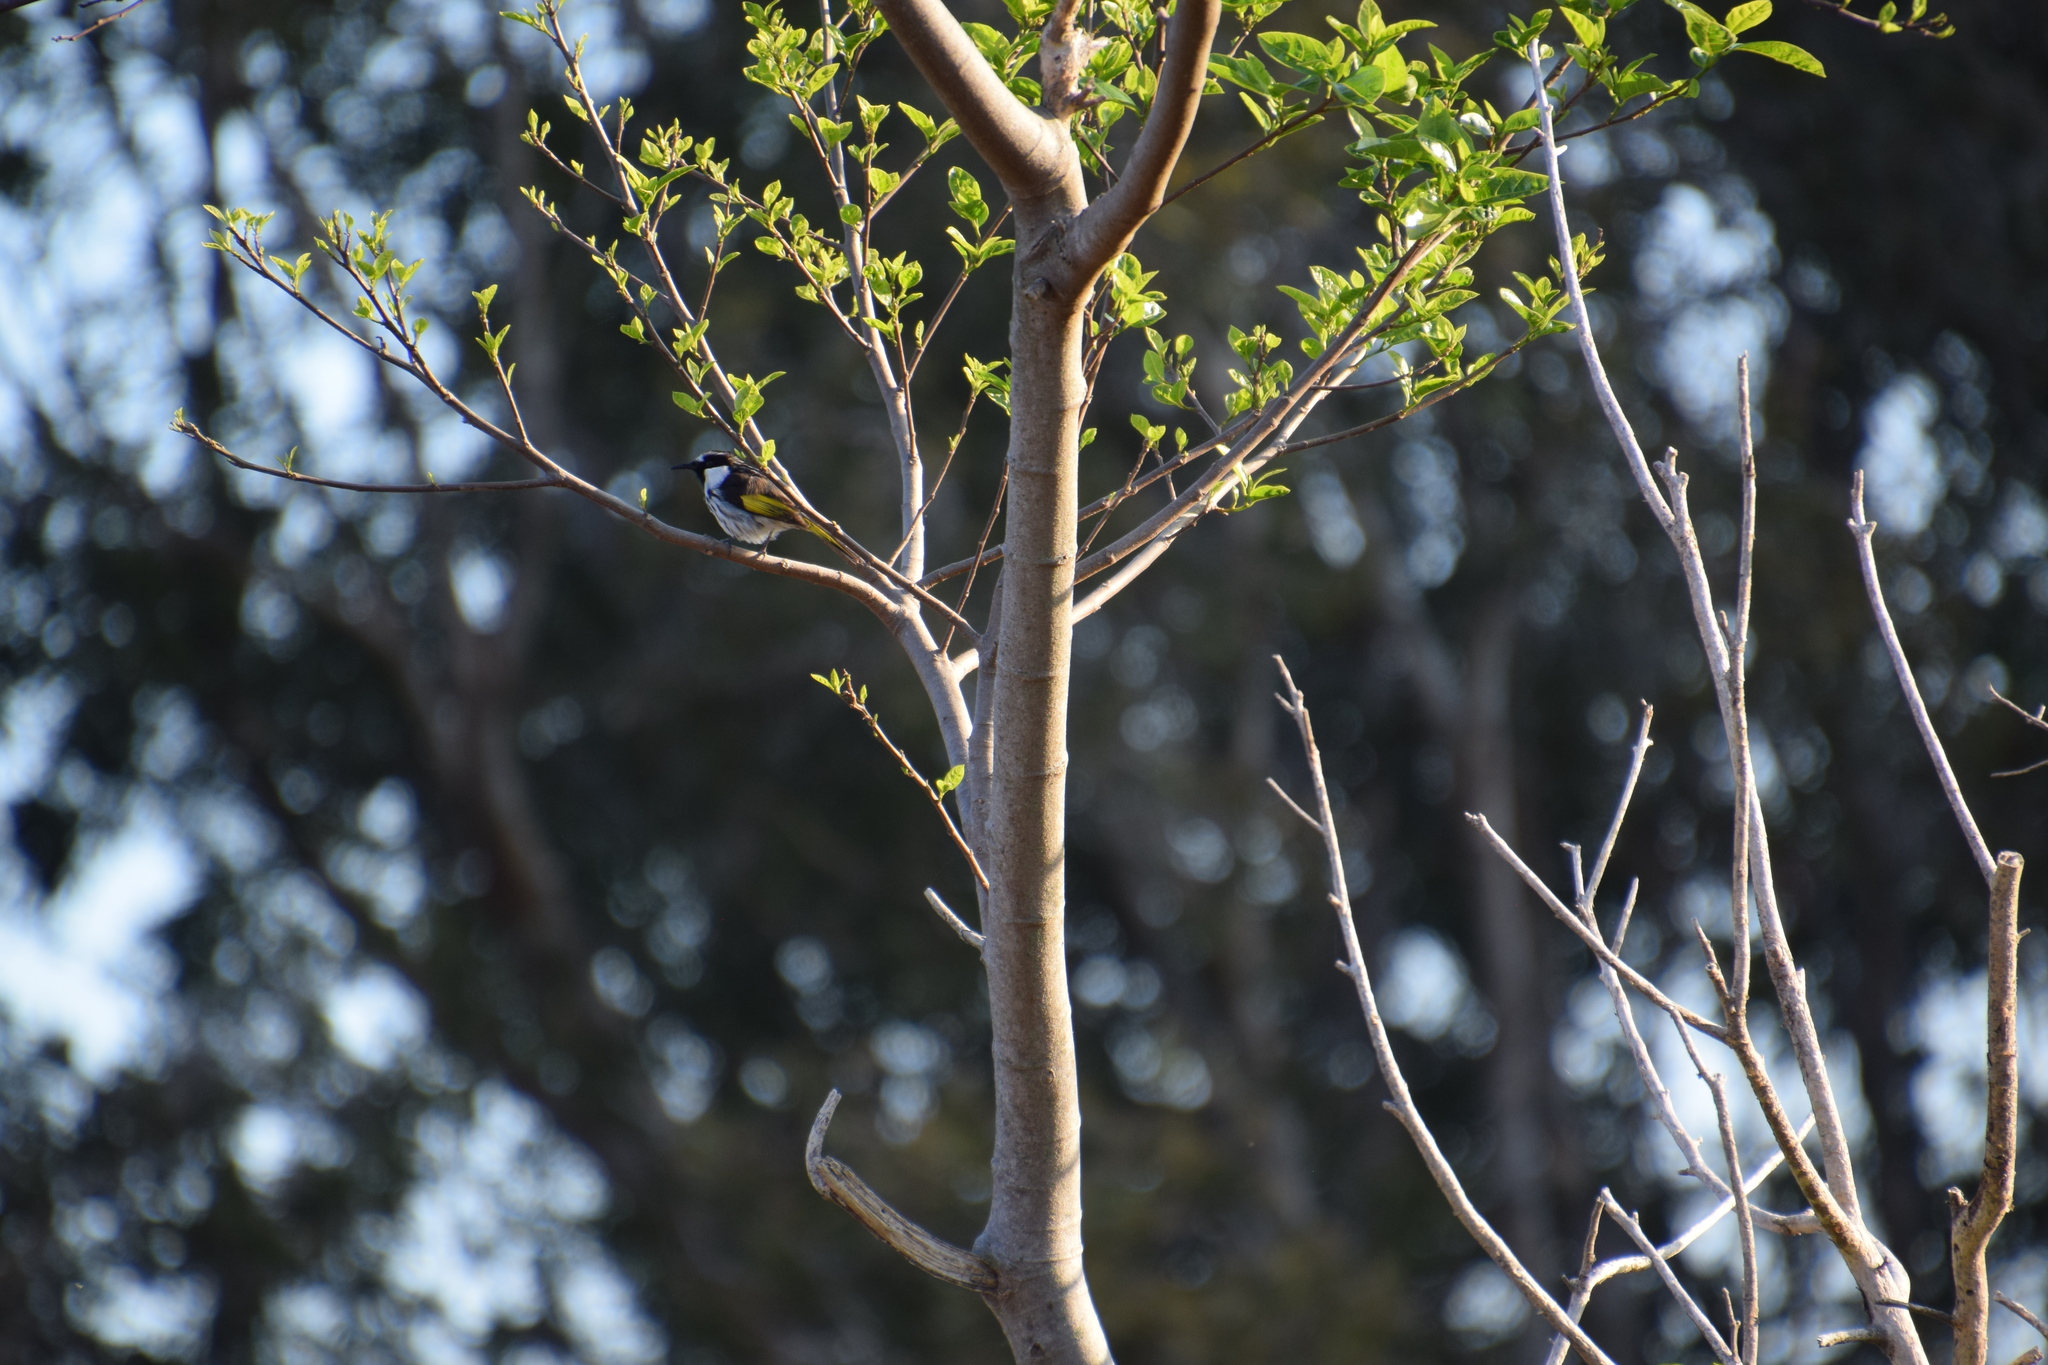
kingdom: Animalia
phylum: Chordata
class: Aves
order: Passeriformes
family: Meliphagidae
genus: Phylidonyris
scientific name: Phylidonyris niger
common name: White-cheeked honeyeater
